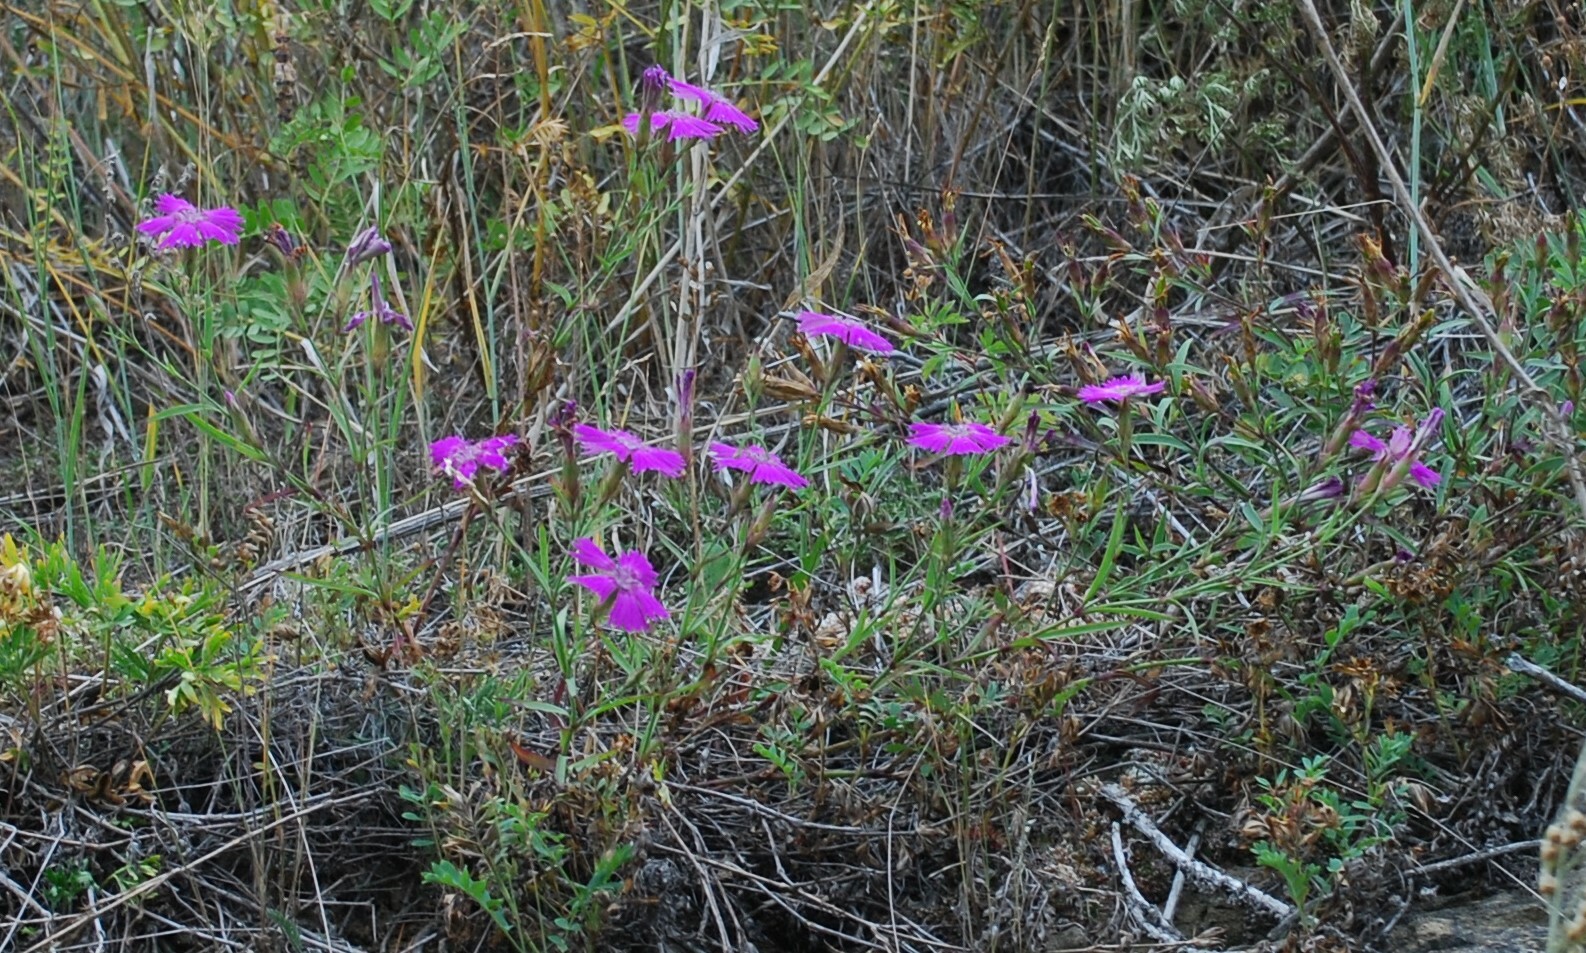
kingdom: Plantae
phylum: Tracheophyta
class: Magnoliopsida
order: Caryophyllales
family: Caryophyllaceae
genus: Dianthus
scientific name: Dianthus chinensis
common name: Rainbow pink
